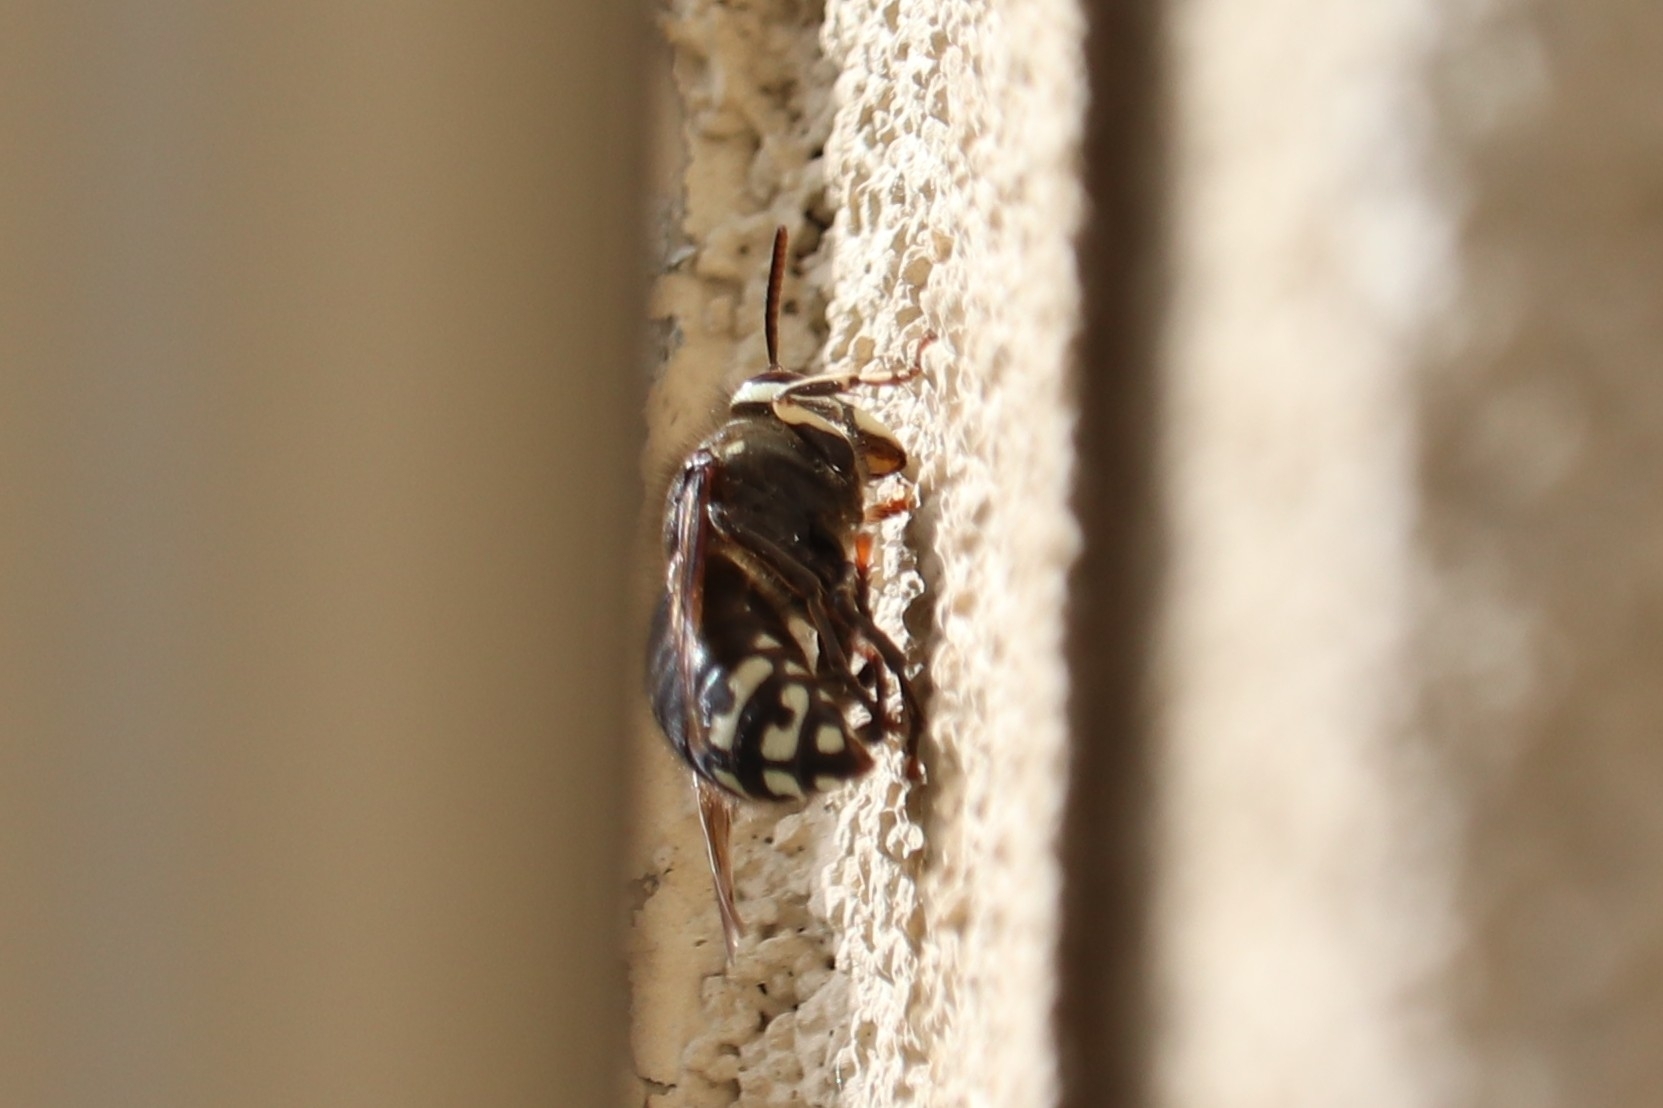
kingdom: Animalia
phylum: Arthropoda
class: Insecta
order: Hymenoptera
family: Vespidae
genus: Dolichovespula
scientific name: Dolichovespula maculata
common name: Bald-faced hornet
